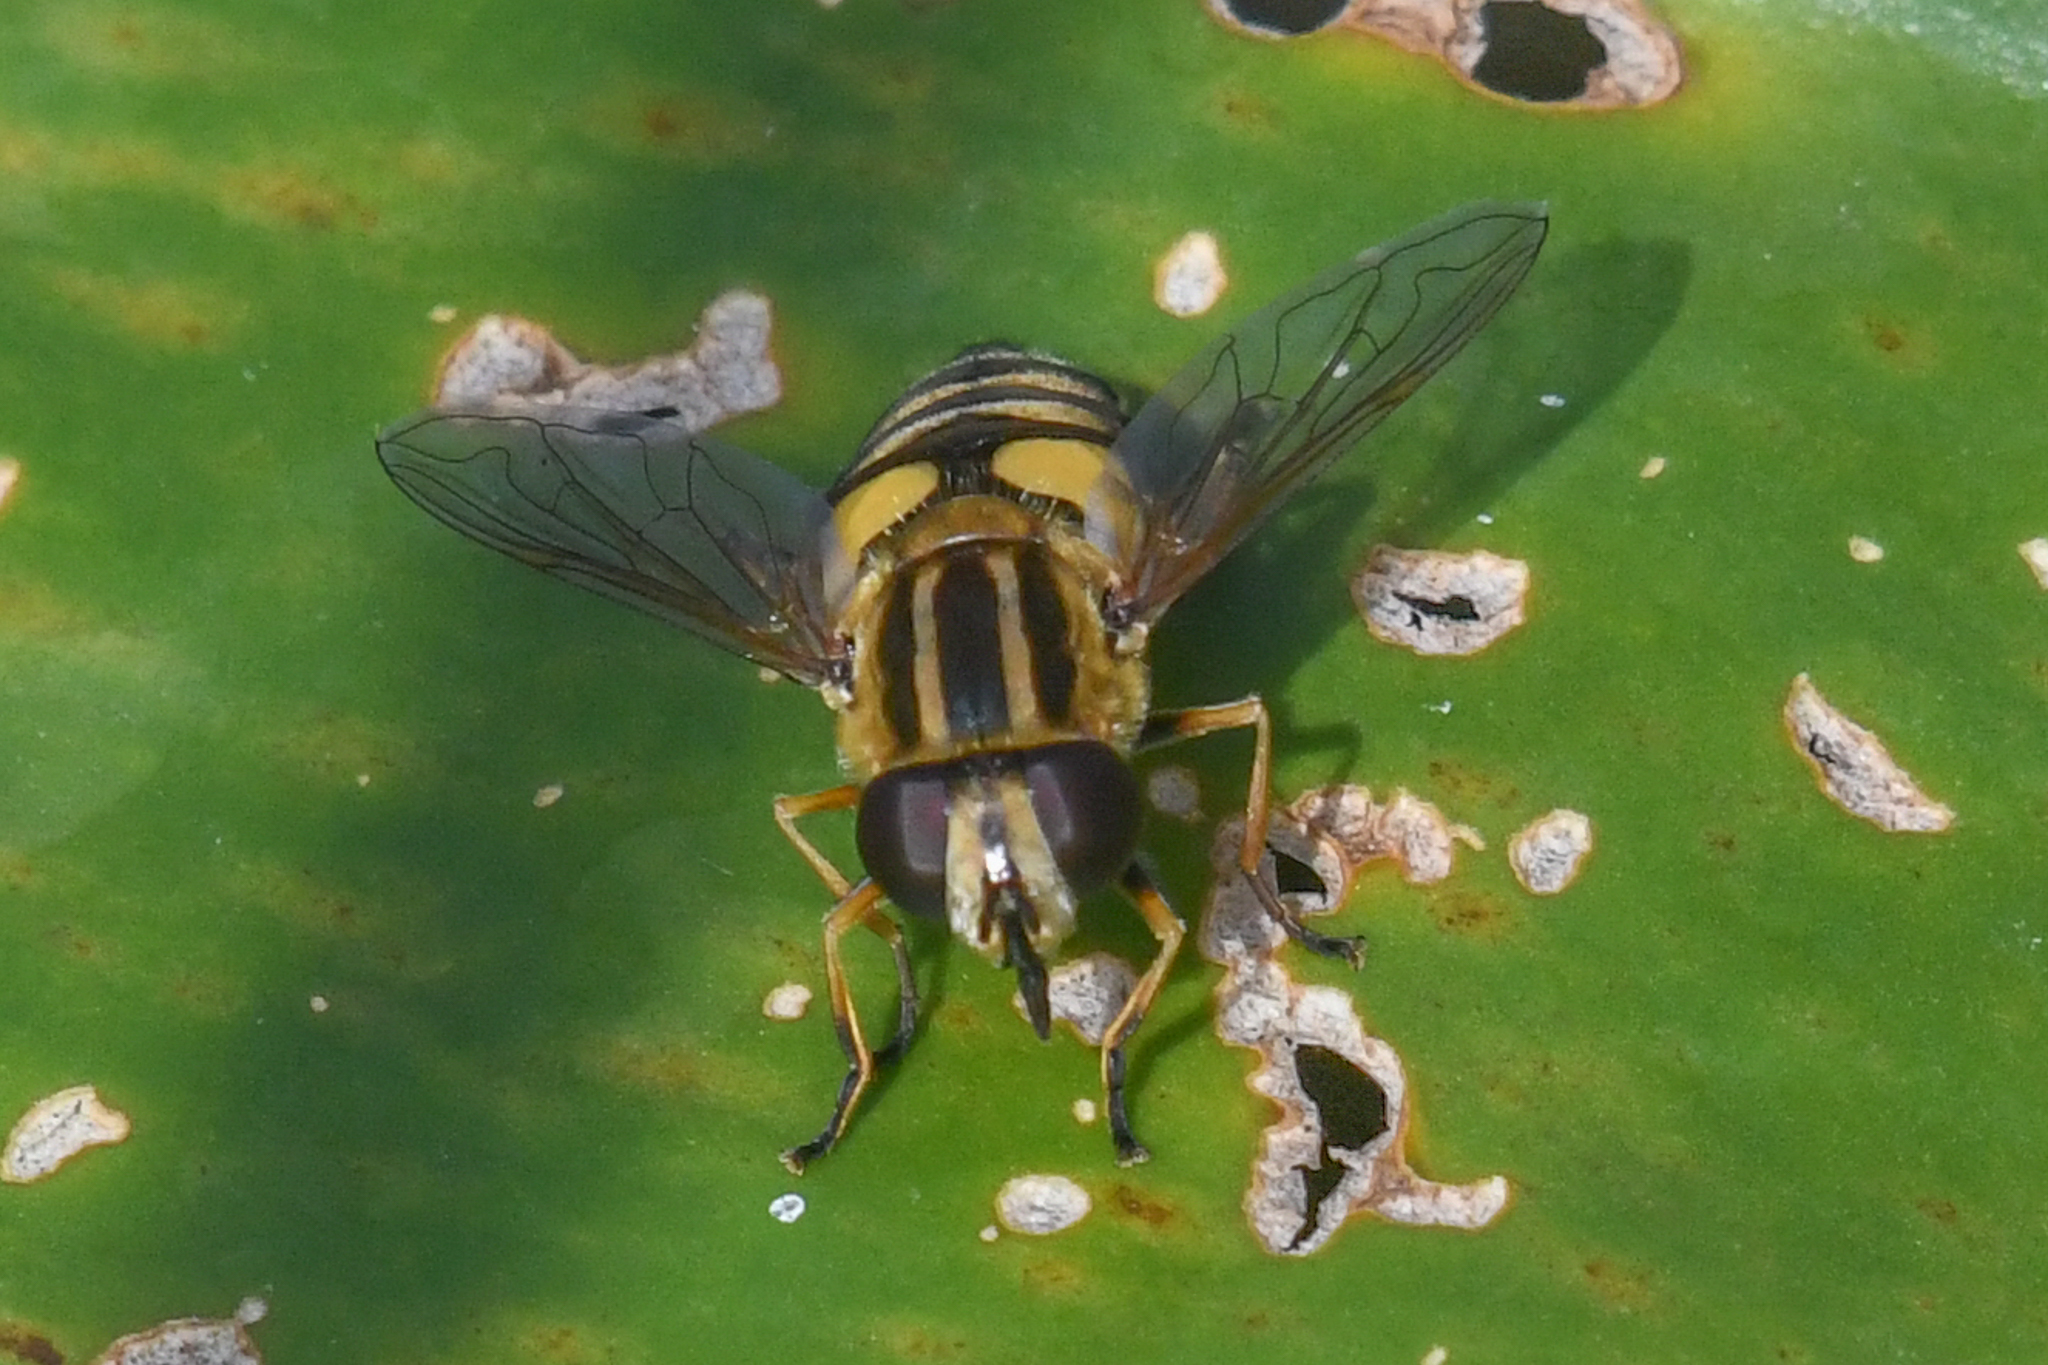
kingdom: Animalia
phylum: Arthropoda
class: Insecta
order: Diptera
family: Syrphidae
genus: Helophilus
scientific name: Helophilus hybridus
